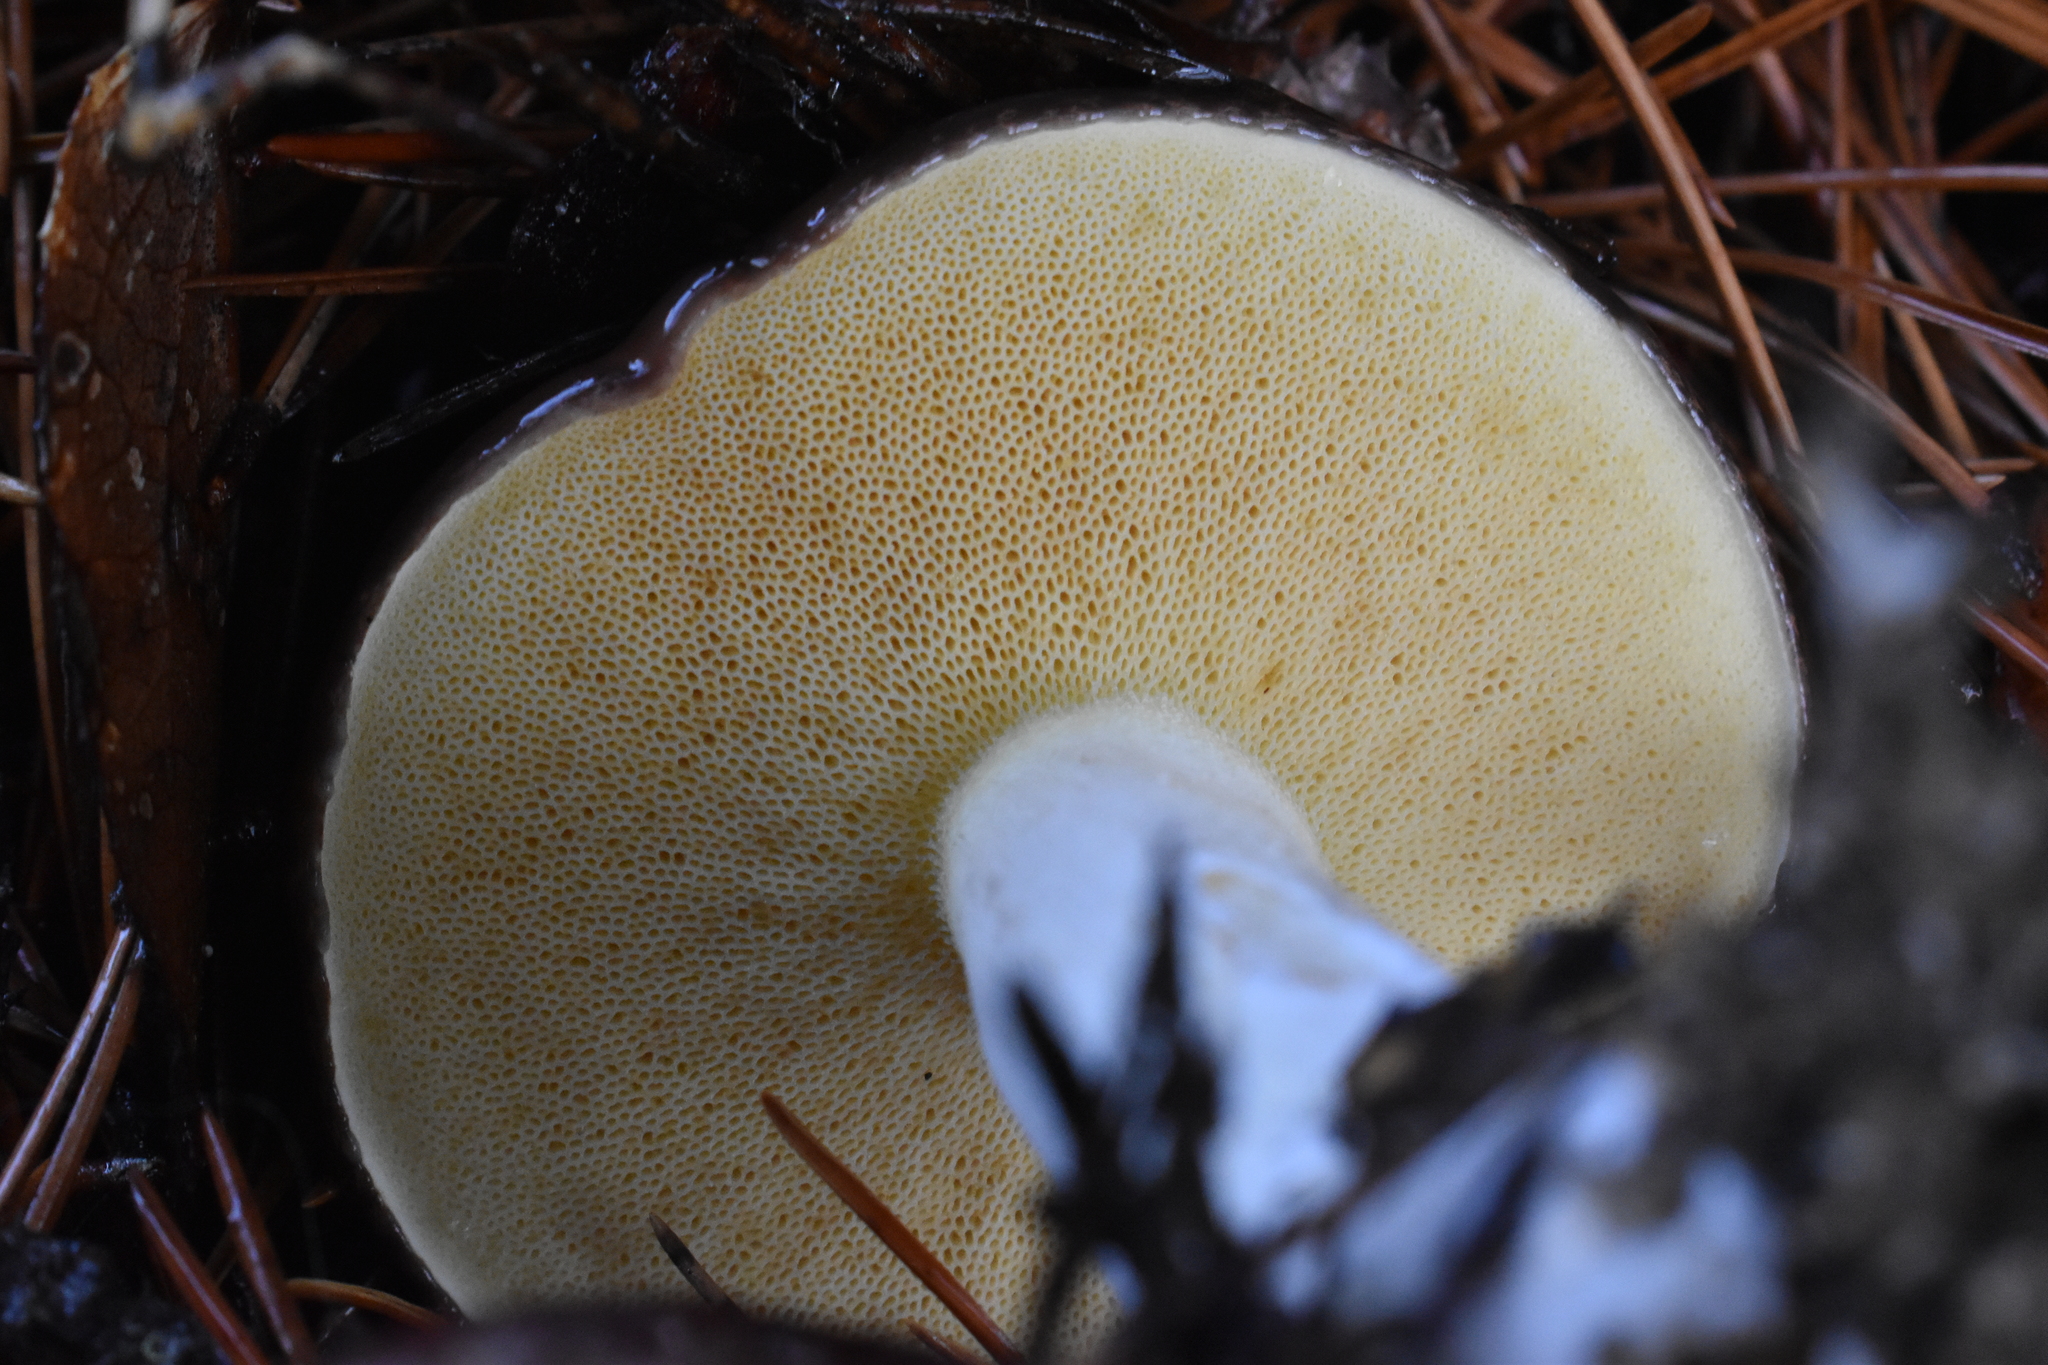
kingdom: Fungi
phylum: Basidiomycota
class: Agaricomycetes
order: Boletales
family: Suillaceae
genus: Suillus
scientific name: Suillus brevipes
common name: Short-stalked suillus
